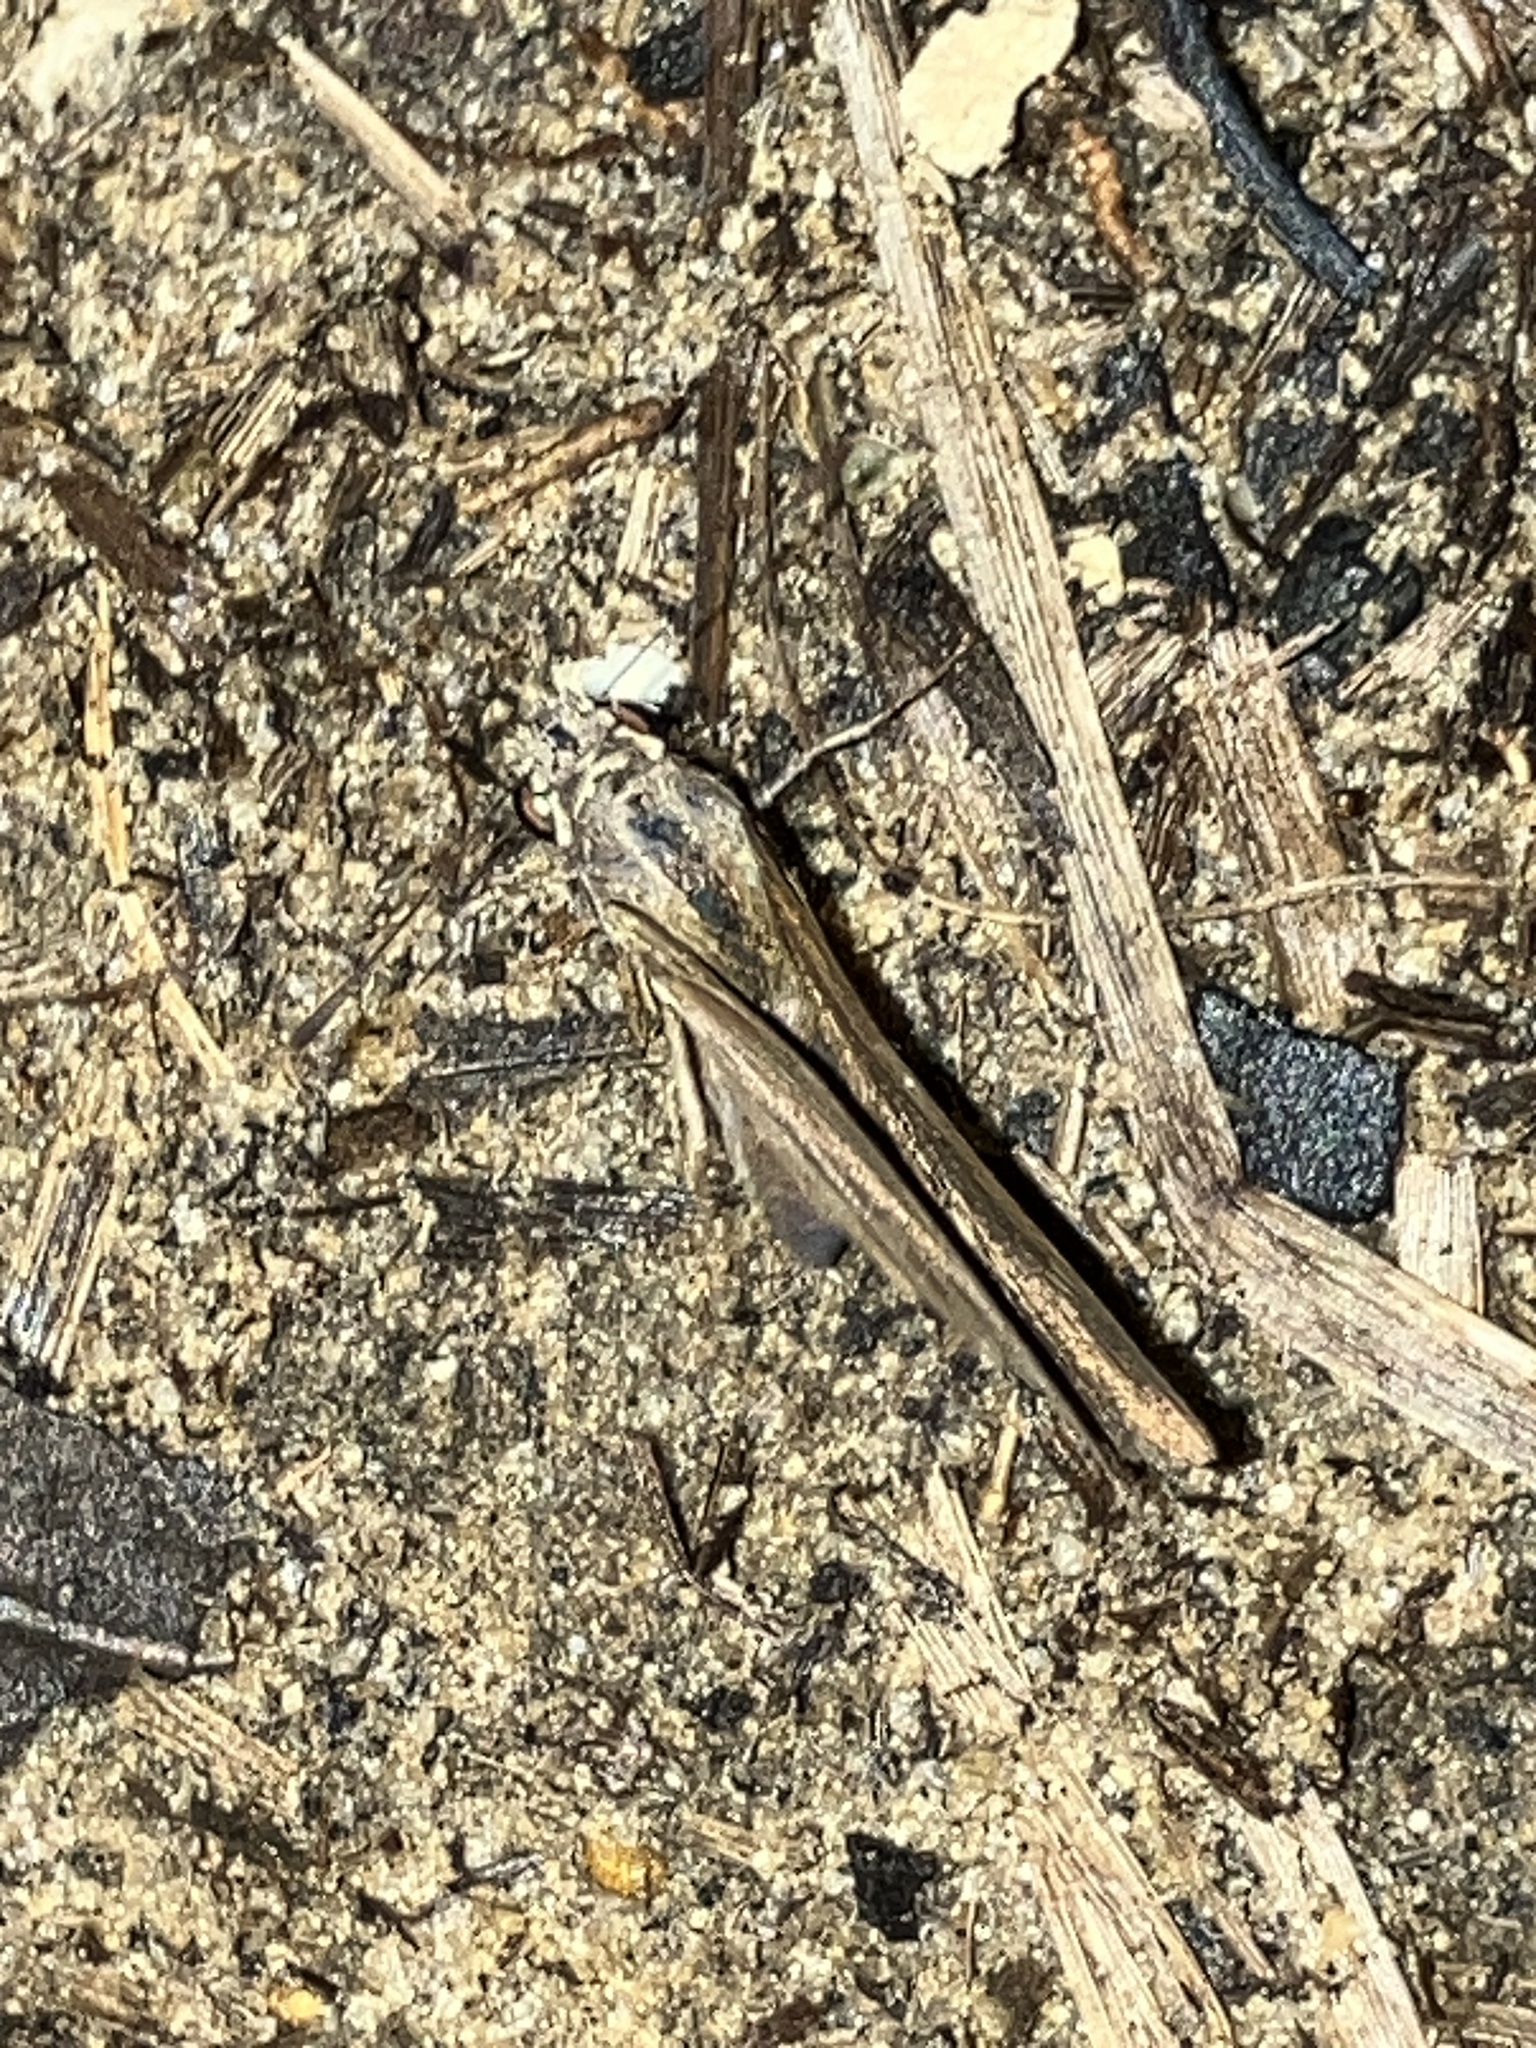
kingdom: Animalia
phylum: Arthropoda
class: Insecta
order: Lepidoptera
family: Hesperiidae
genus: Cymaenes
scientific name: Cymaenes tripunctus
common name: Dingy dotted skipper
